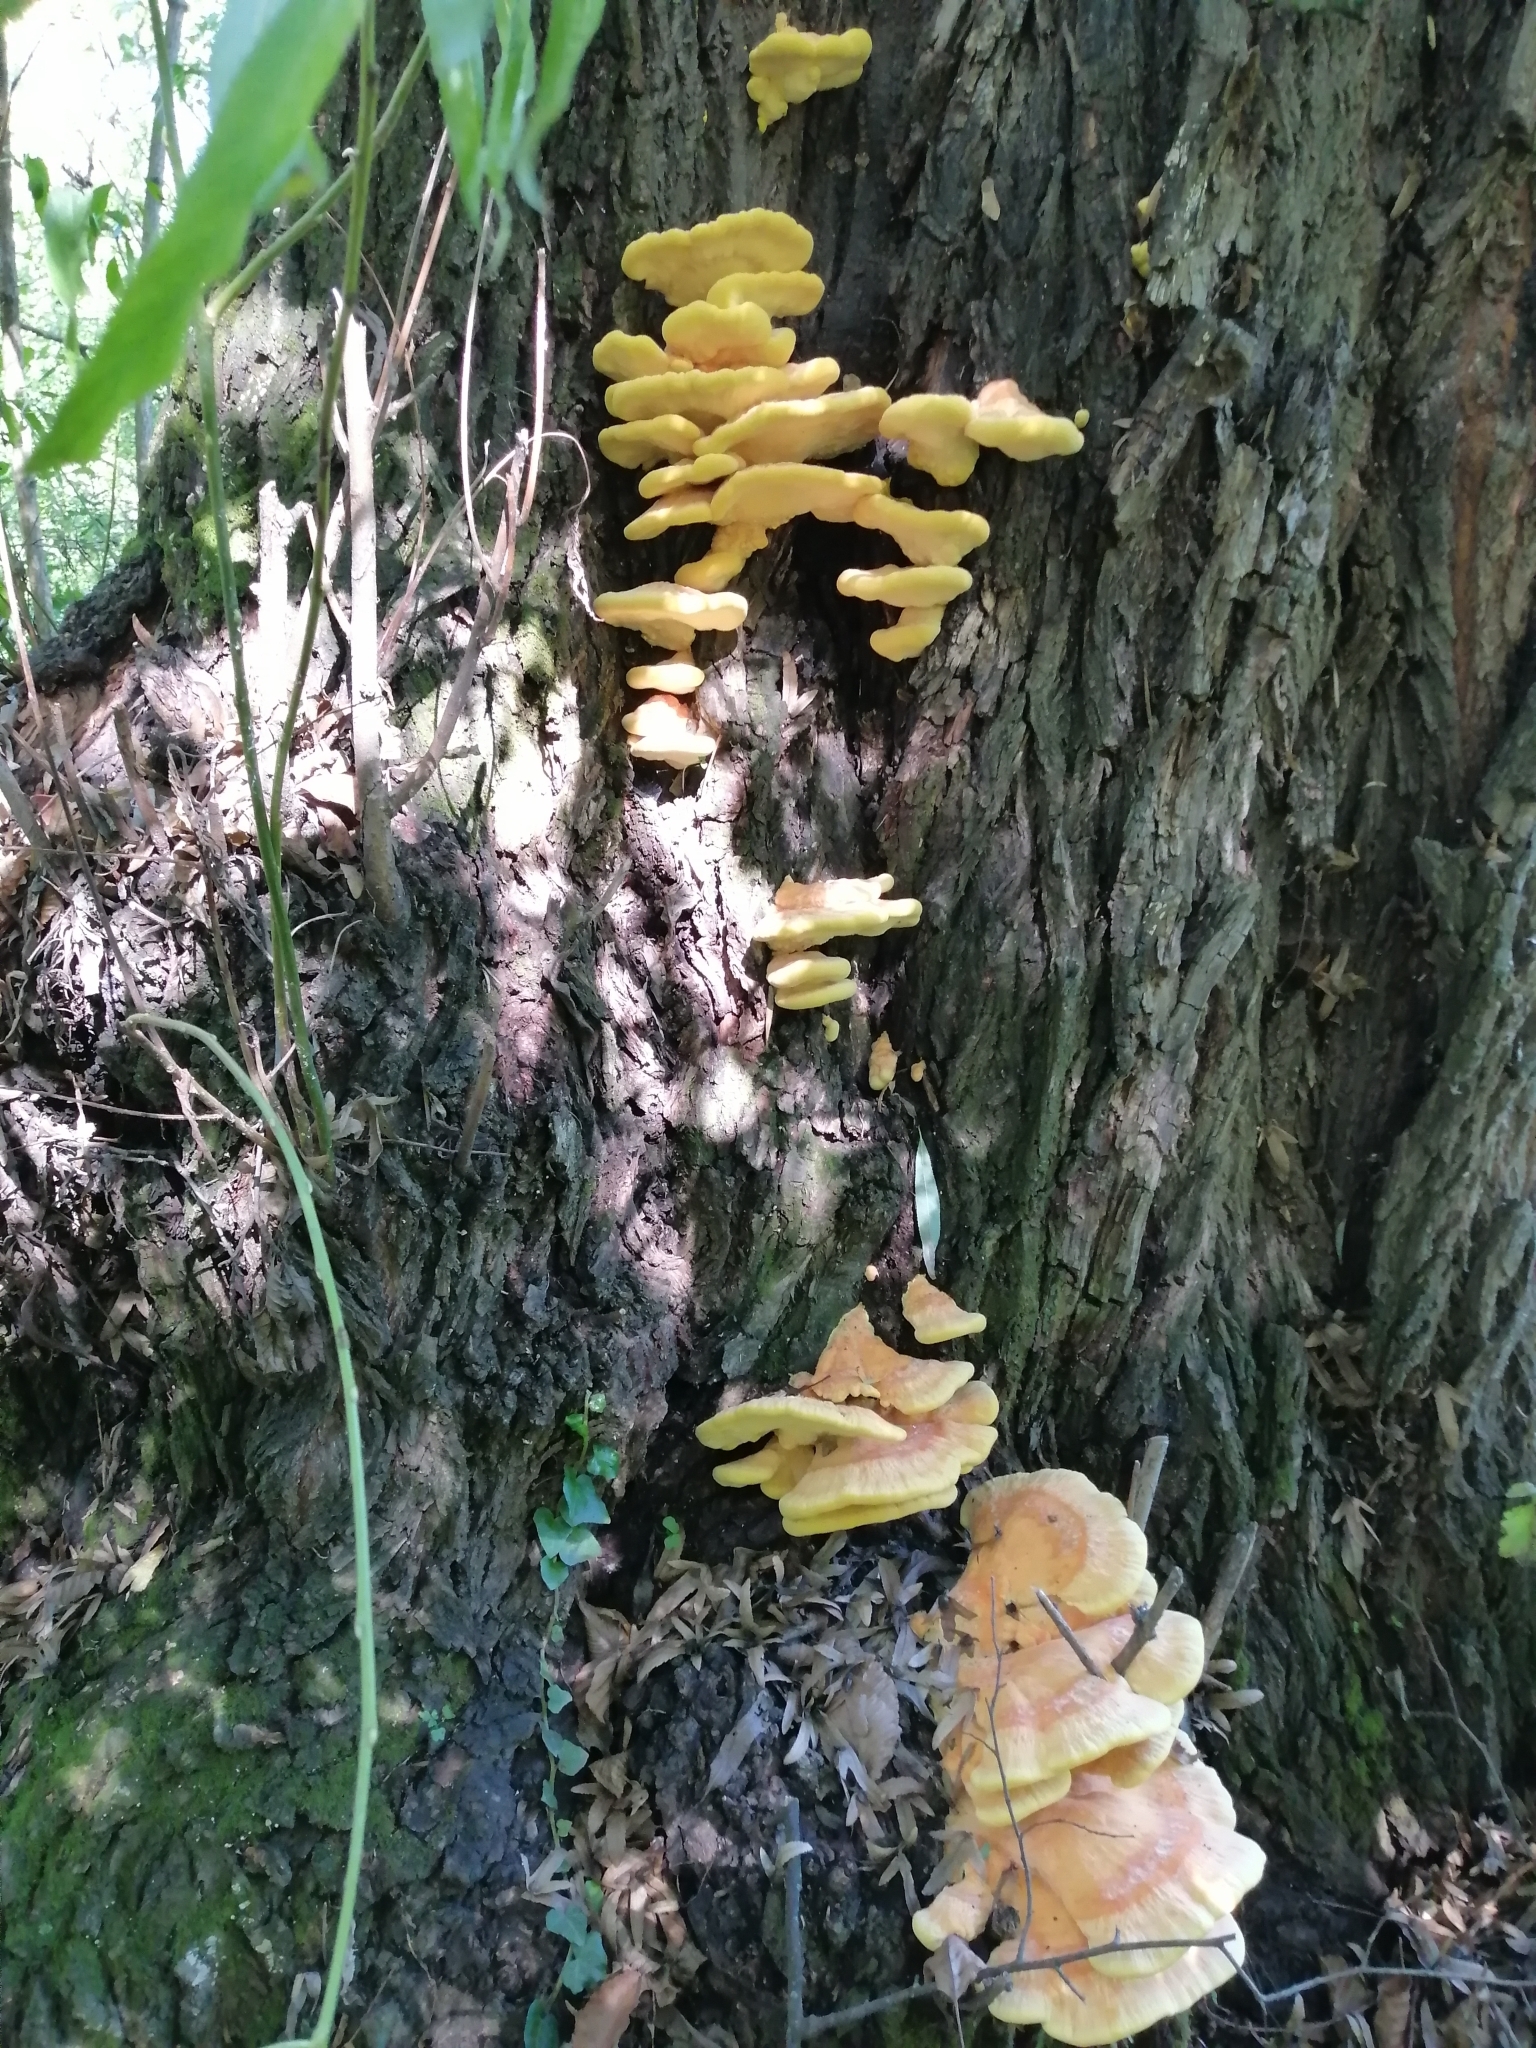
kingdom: Fungi
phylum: Basidiomycota
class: Agaricomycetes
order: Polyporales
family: Laetiporaceae
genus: Laetiporus
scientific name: Laetiporus sulphureus
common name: Chicken of the woods
